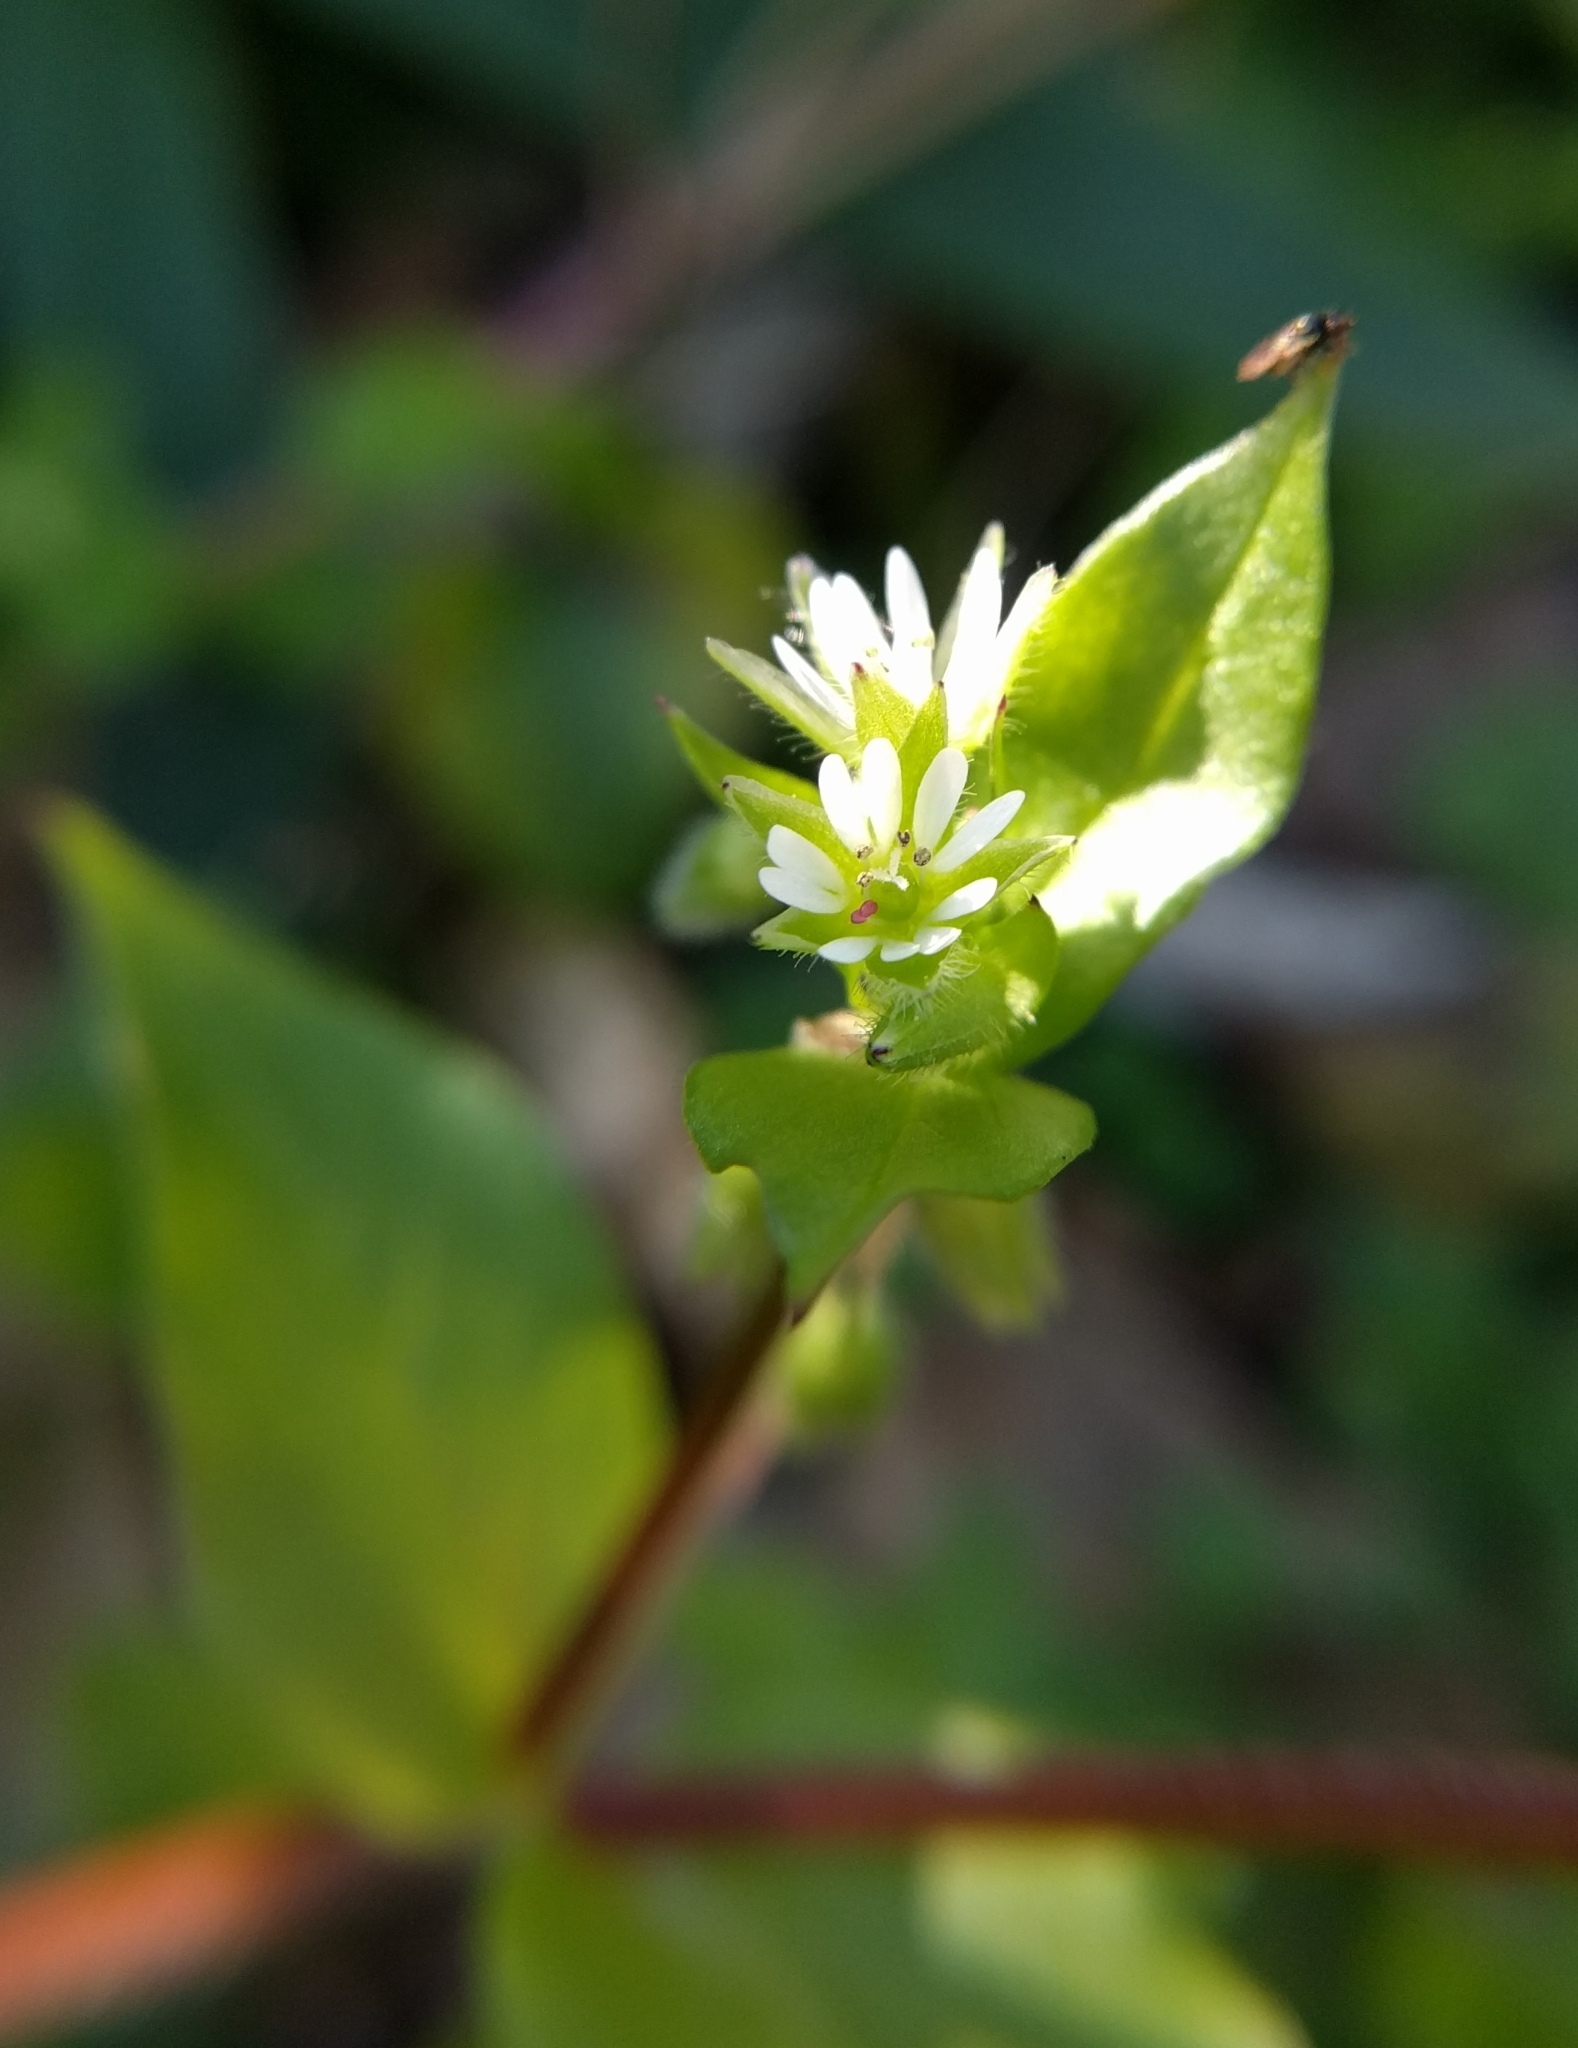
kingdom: Plantae
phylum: Tracheophyta
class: Magnoliopsida
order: Caryophyllales
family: Caryophyllaceae
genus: Stellaria
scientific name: Stellaria media
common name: Common chickweed
